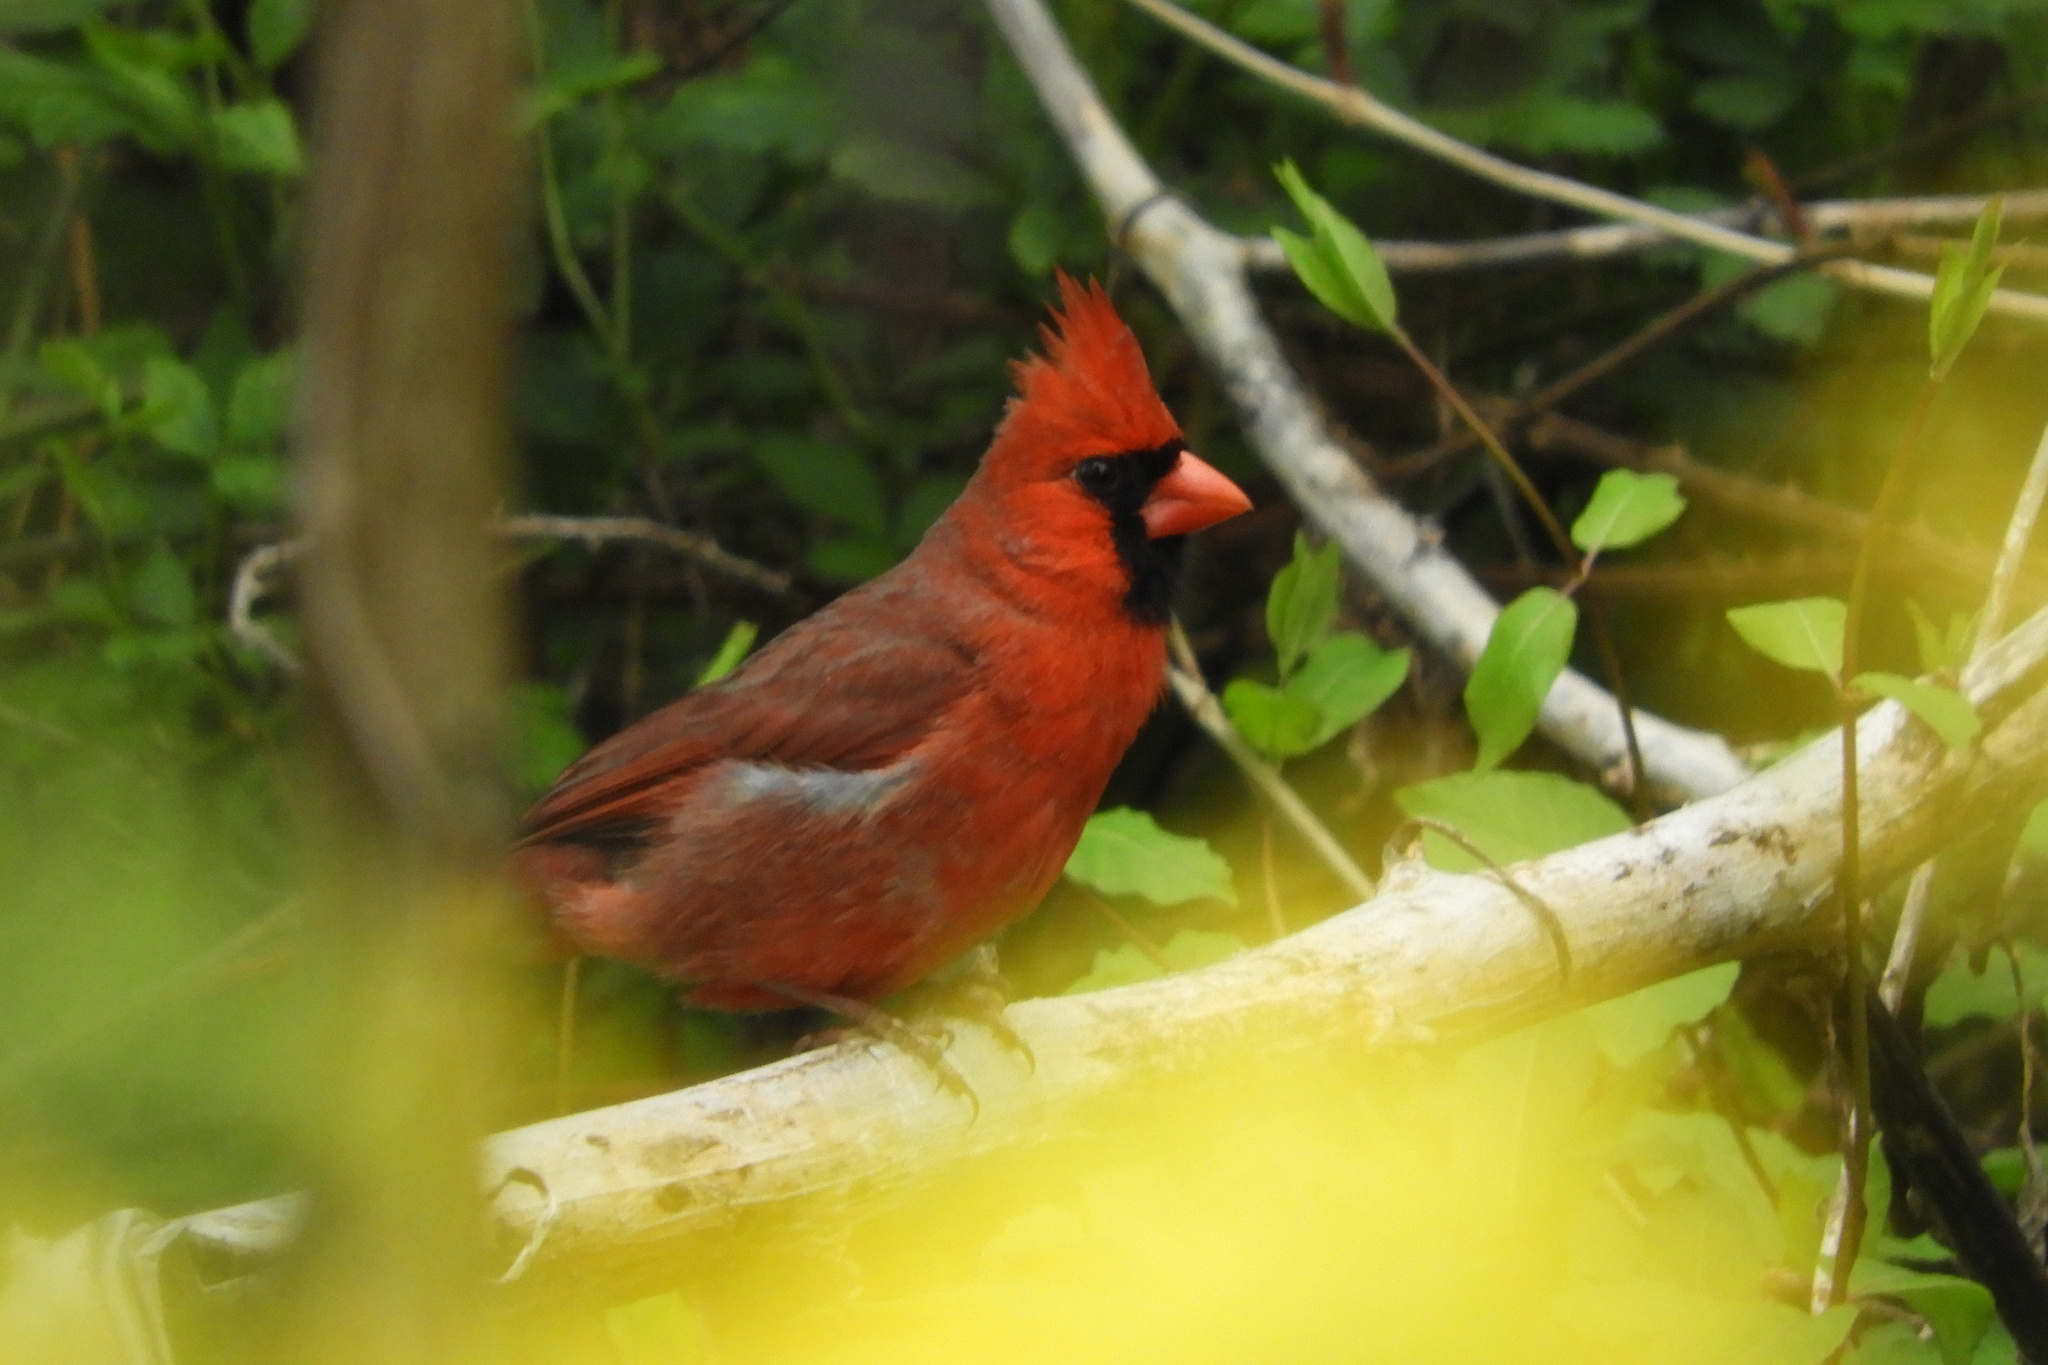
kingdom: Animalia
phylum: Chordata
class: Aves
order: Passeriformes
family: Cardinalidae
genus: Cardinalis
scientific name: Cardinalis cardinalis
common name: Northern cardinal
